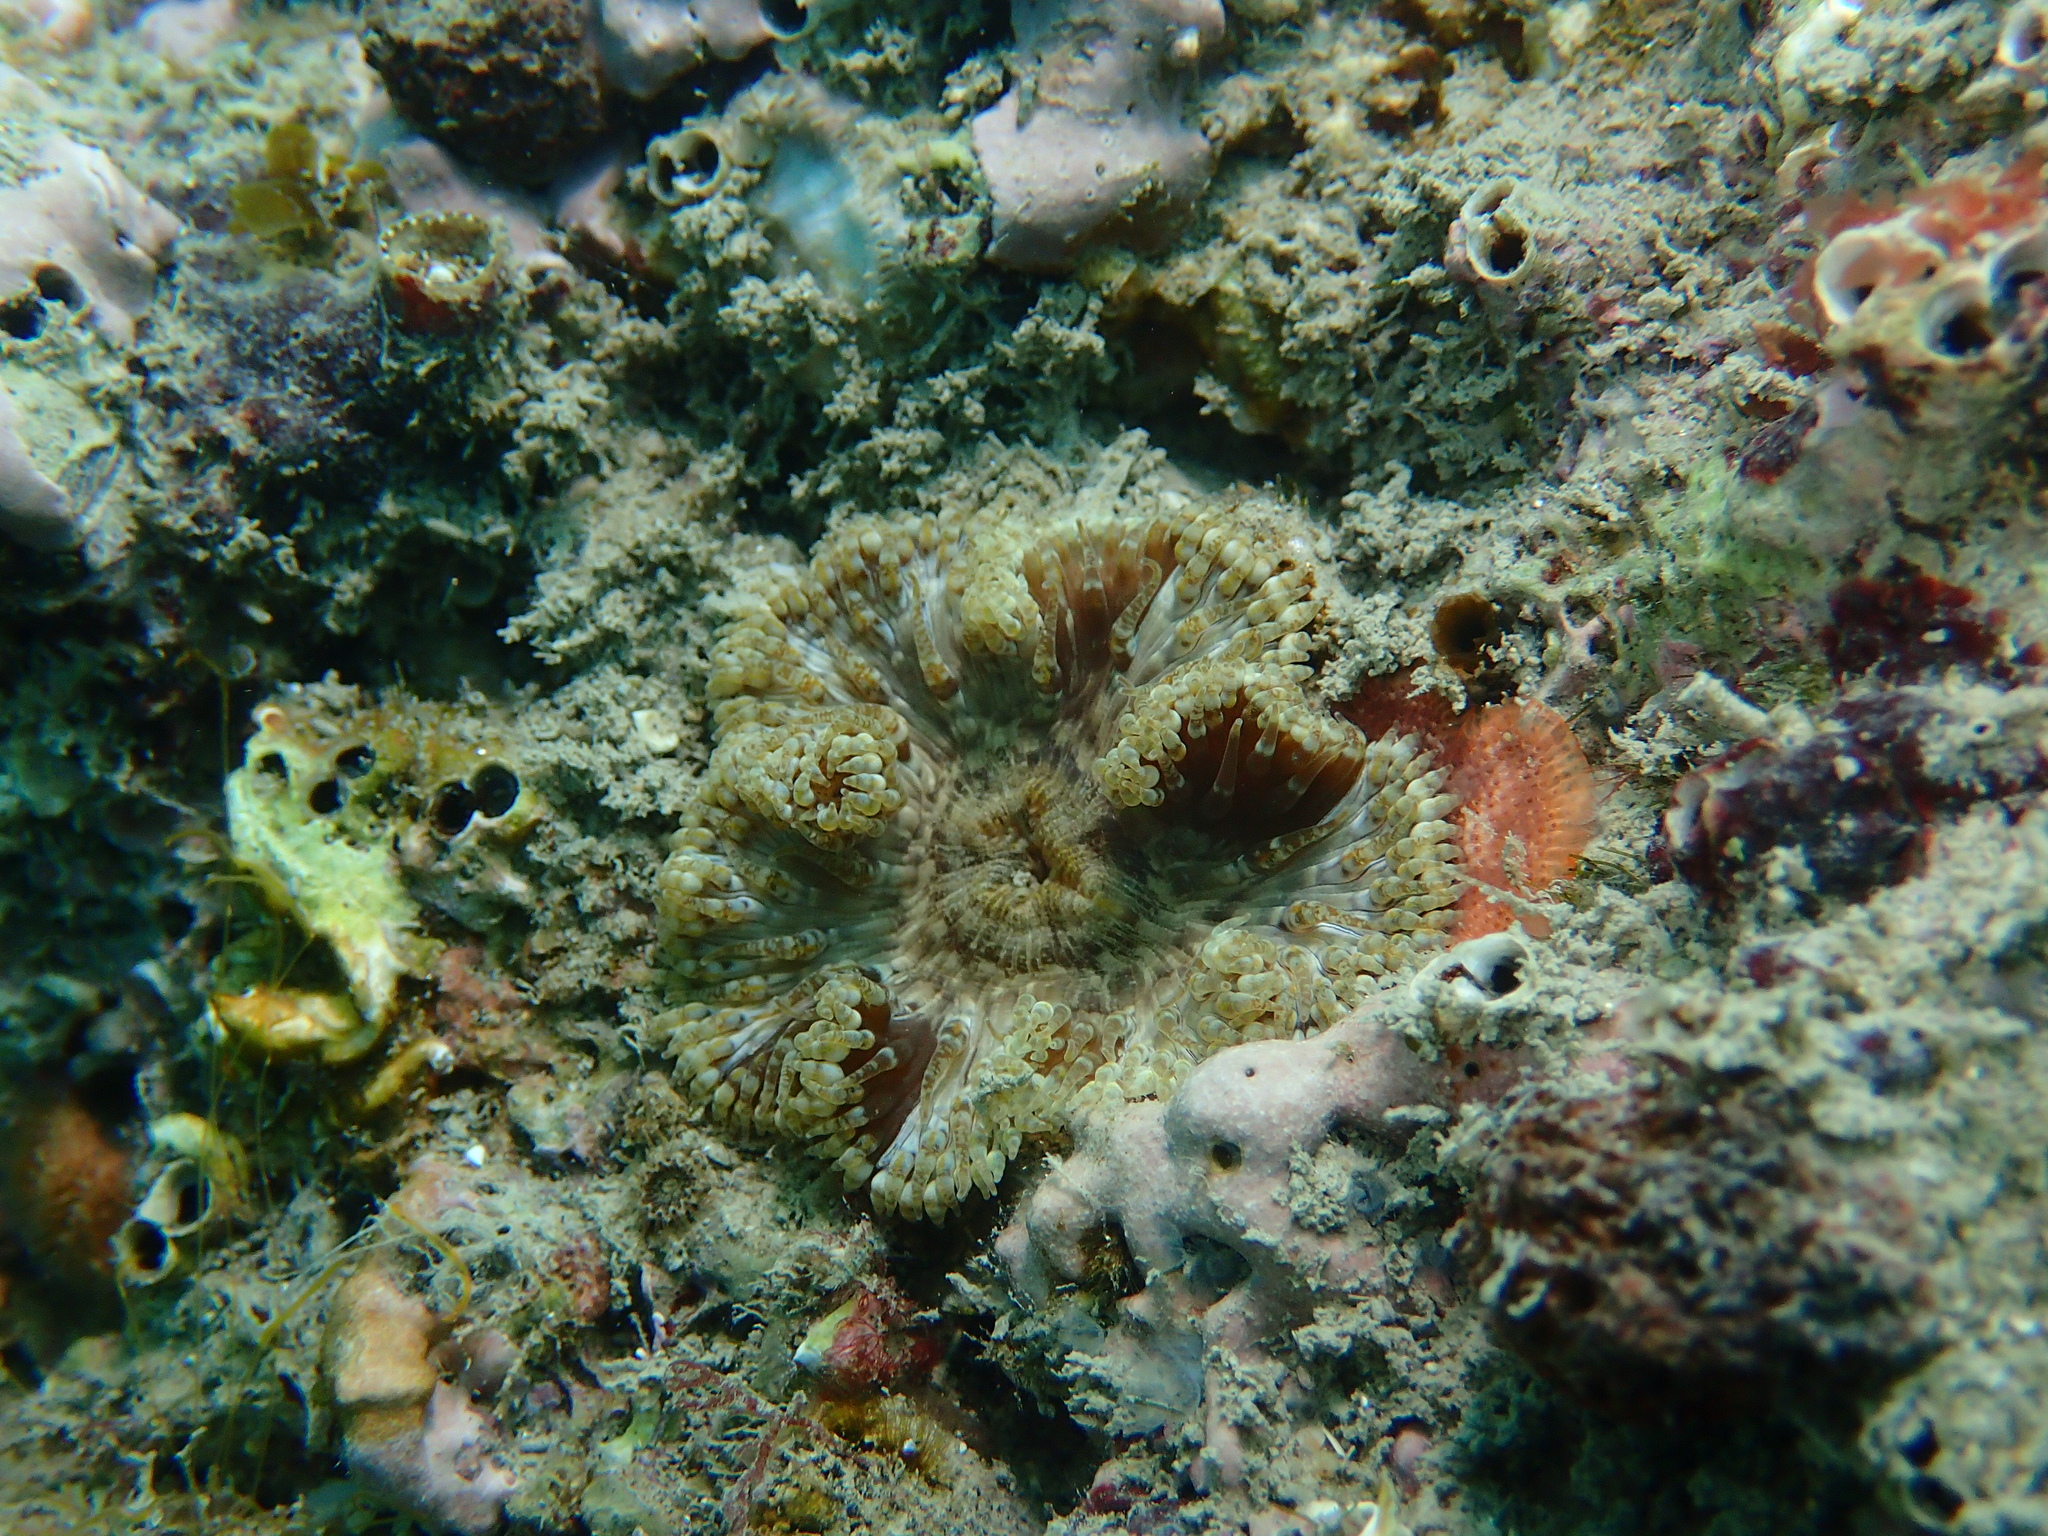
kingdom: Animalia
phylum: Cnidaria
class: Anthozoa
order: Actiniaria
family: Sagartiidae
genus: Cereus
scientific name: Cereus pedunculatus
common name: Daisy anemone
